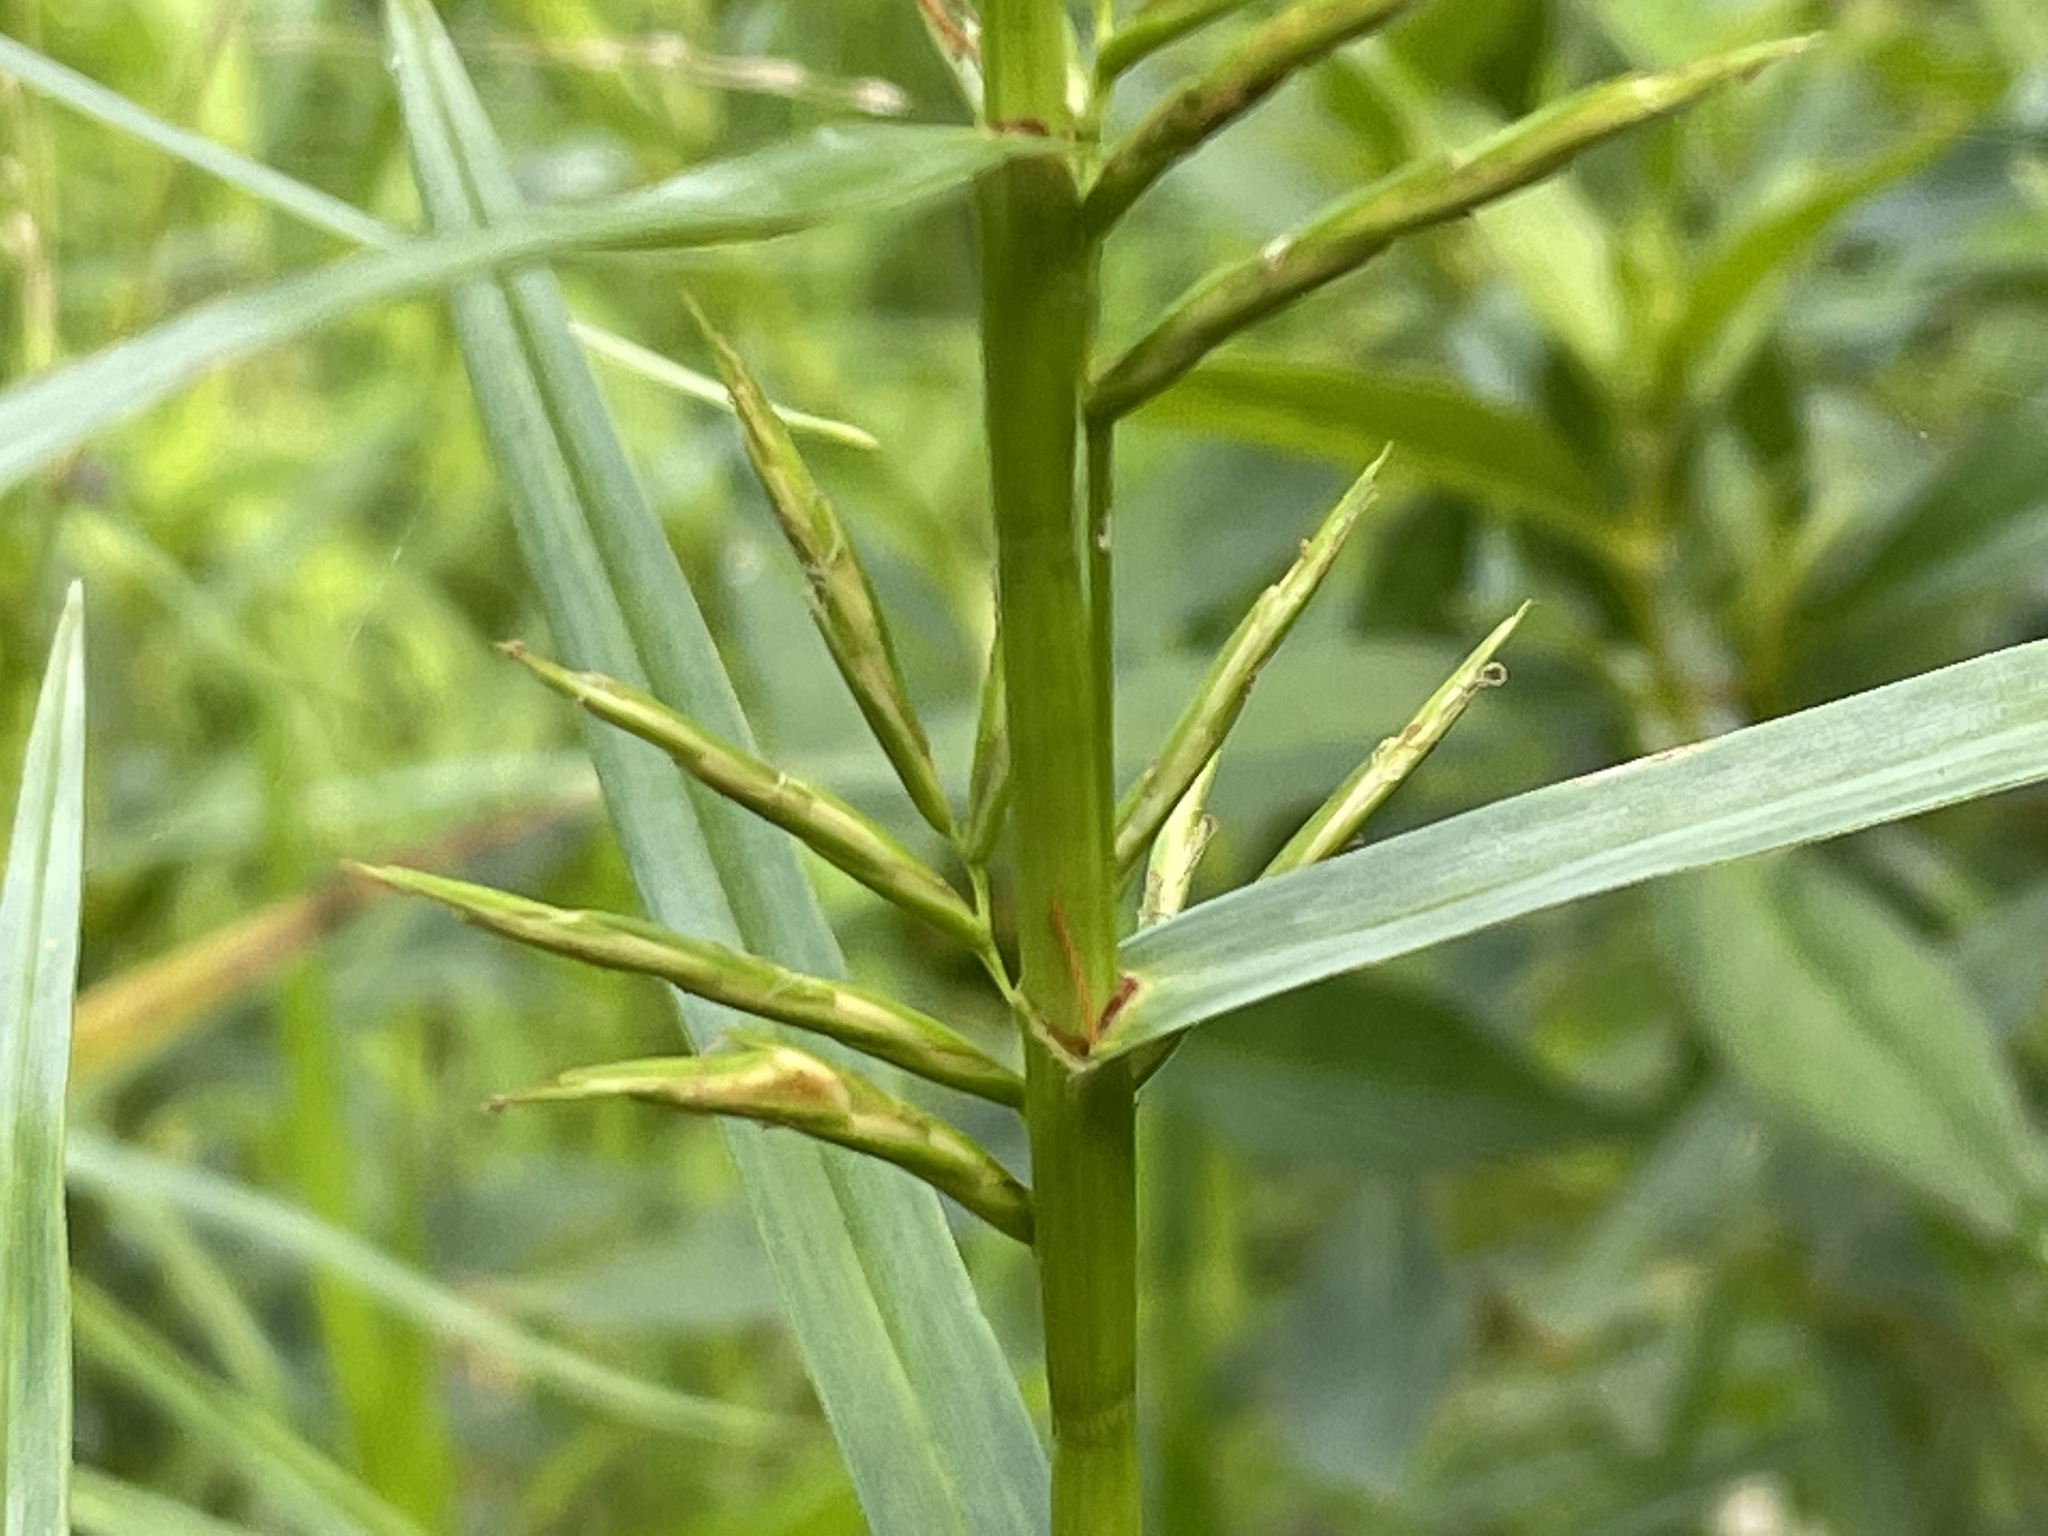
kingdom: Plantae
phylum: Tracheophyta
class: Liliopsida
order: Poales
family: Cyperaceae
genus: Dulichium
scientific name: Dulichium arundinaceum
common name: Three-way sedge
